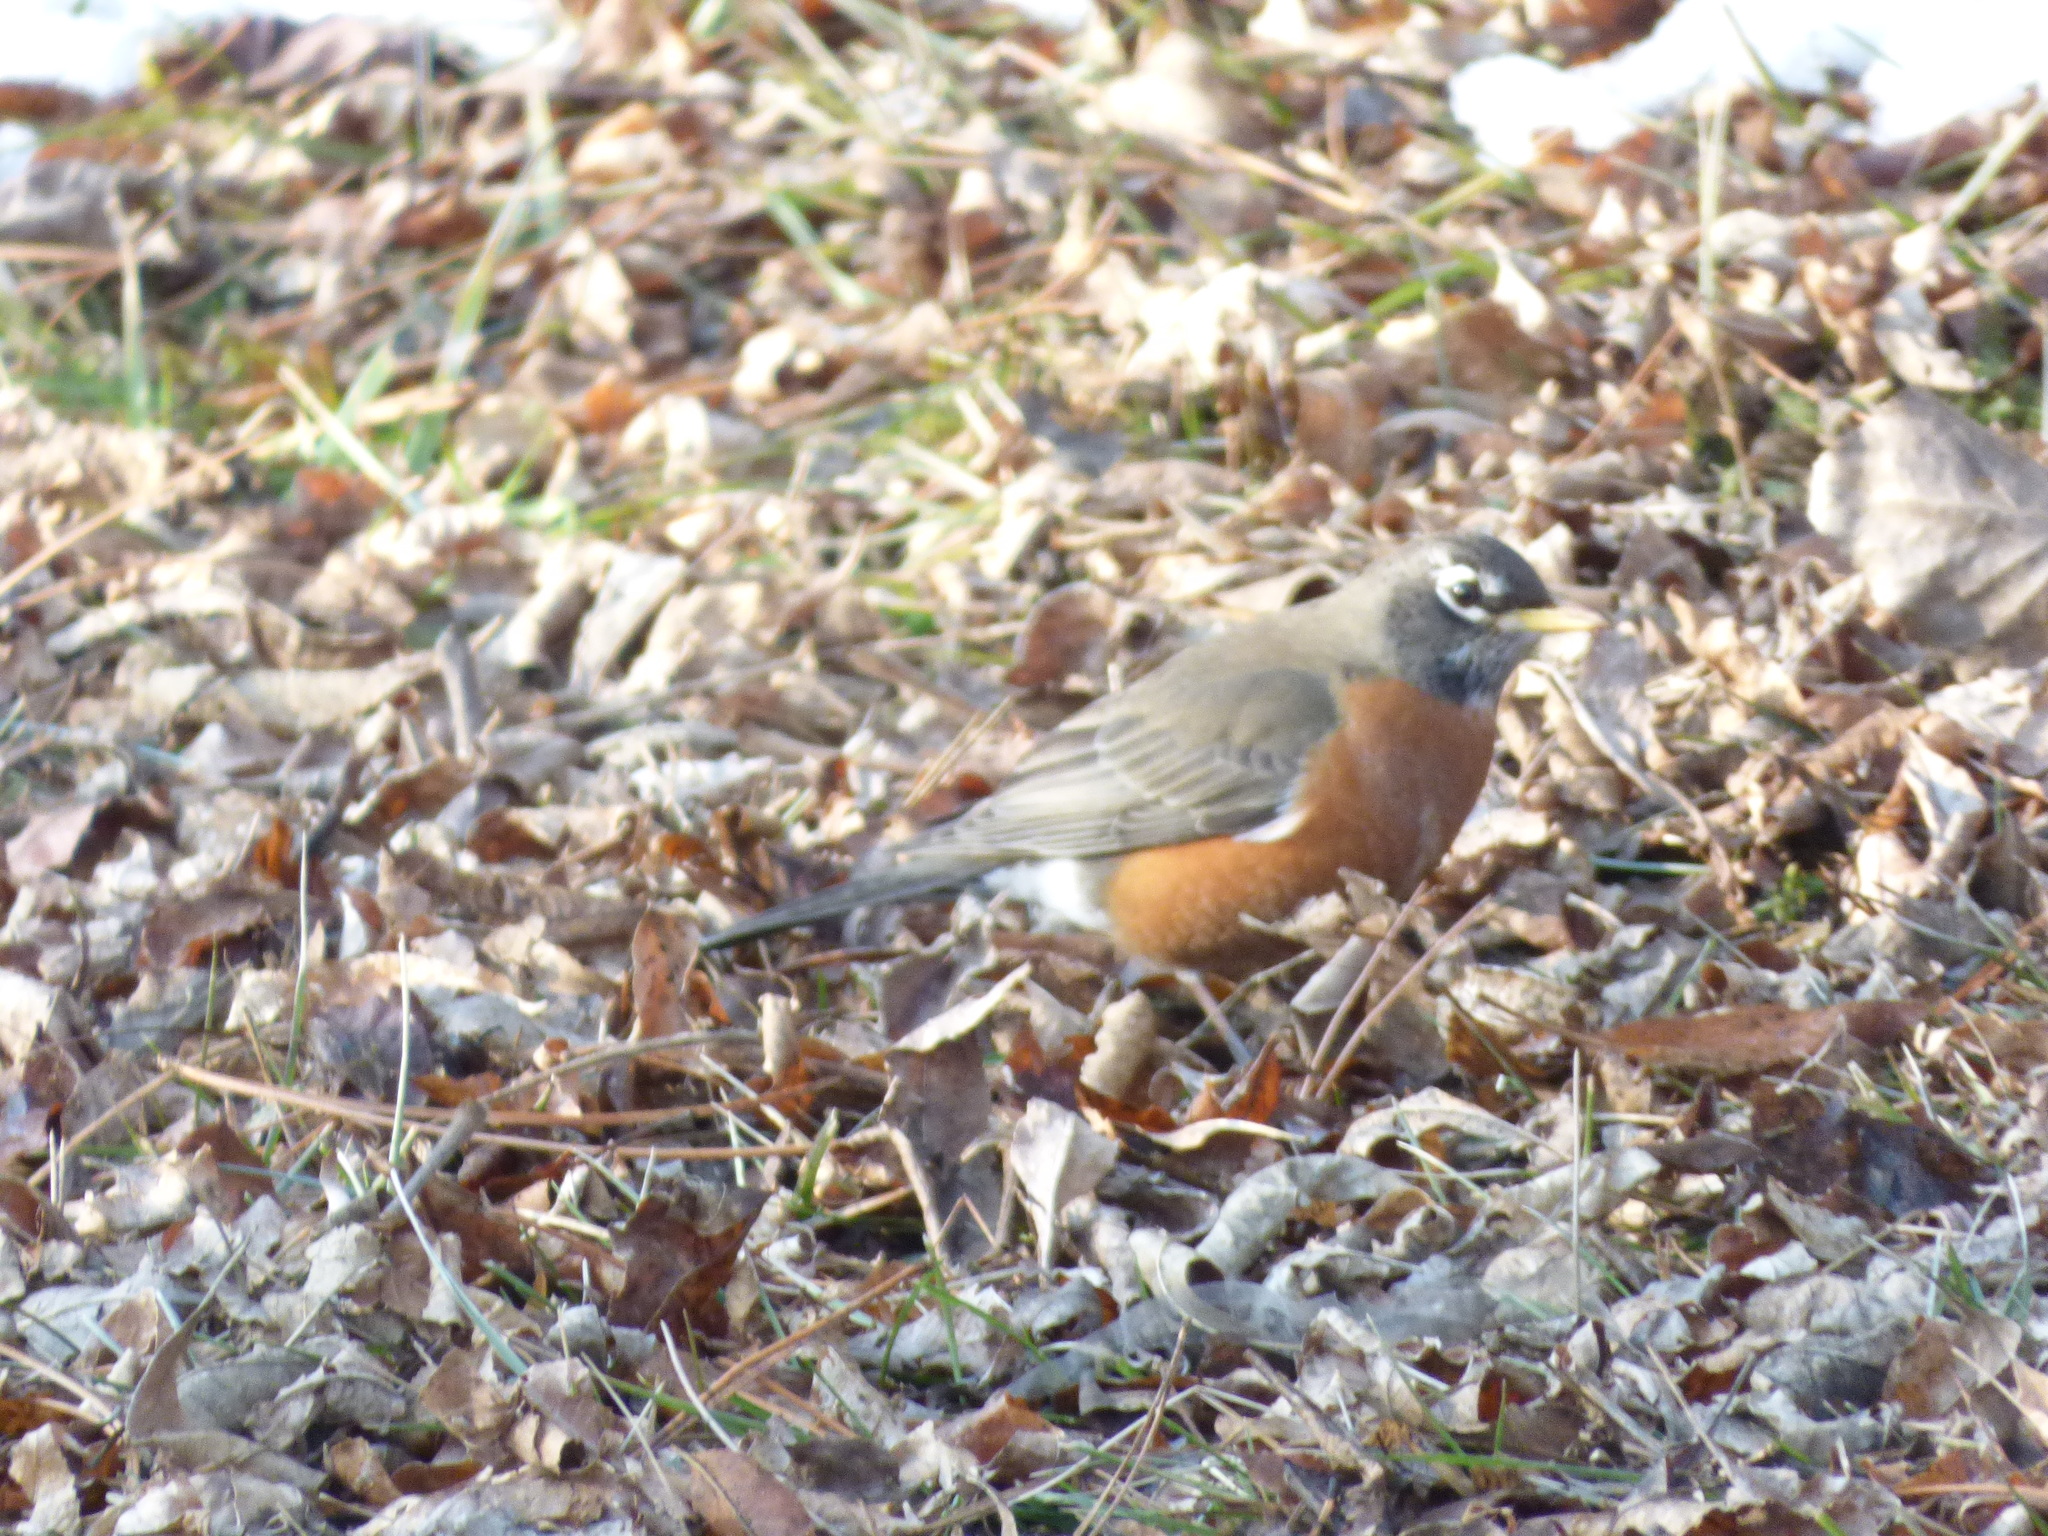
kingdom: Animalia
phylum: Chordata
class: Aves
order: Passeriformes
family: Turdidae
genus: Turdus
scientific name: Turdus migratorius
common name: American robin
